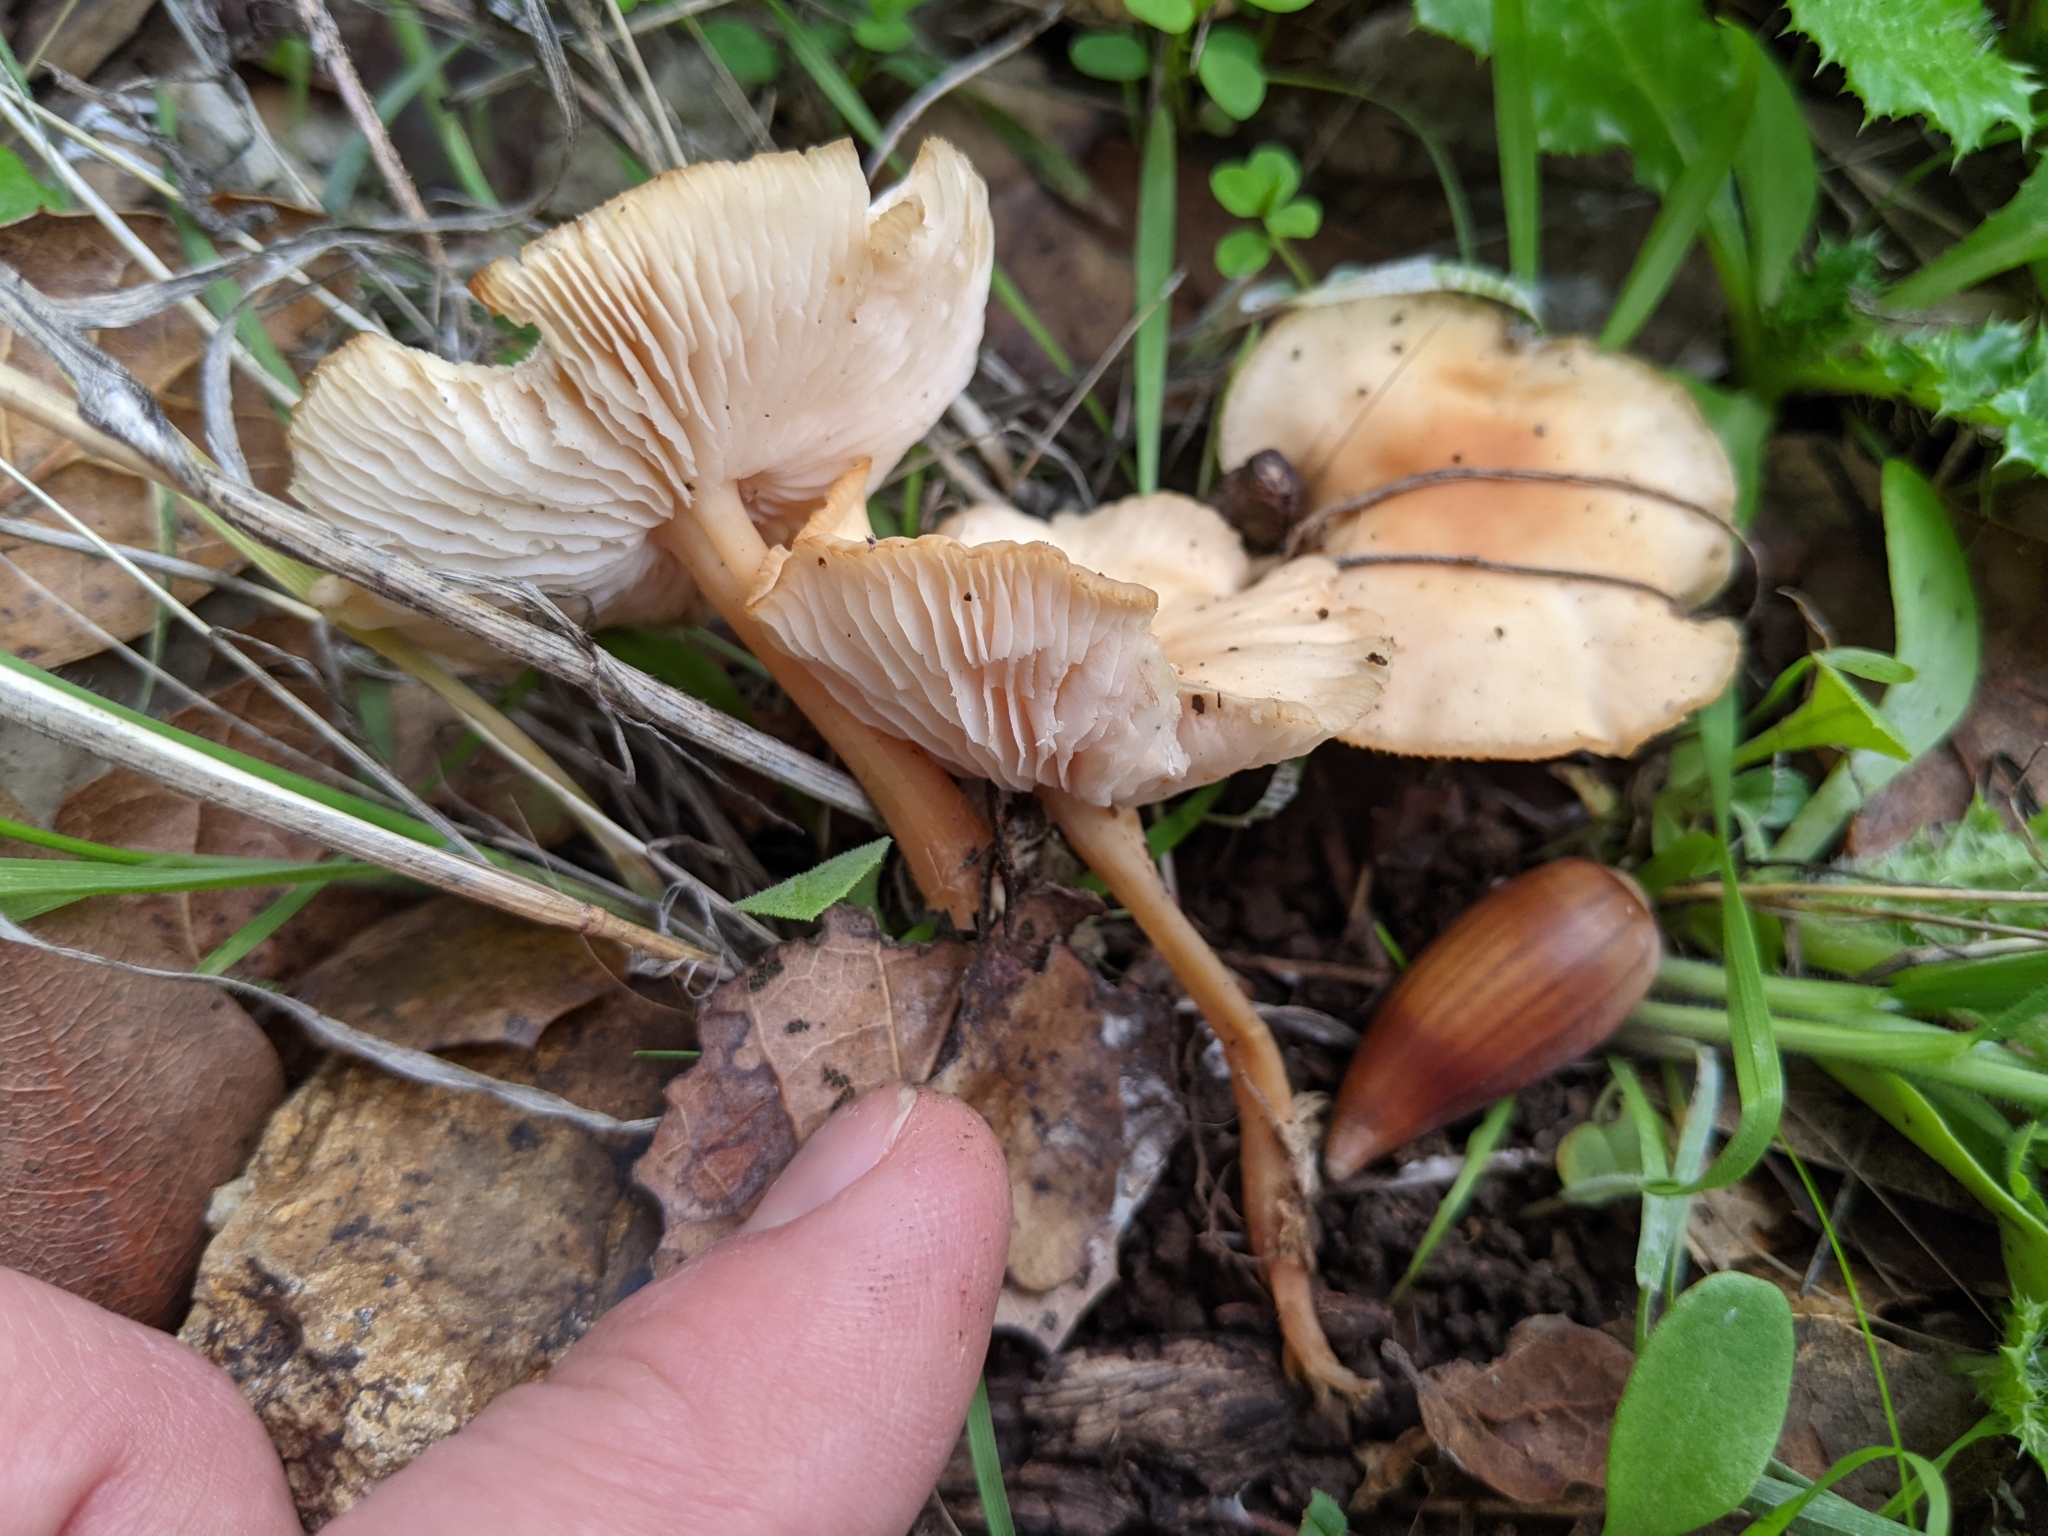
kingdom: Fungi
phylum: Basidiomycota
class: Agaricomycetes
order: Agaricales
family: Omphalotaceae
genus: Gymnopus
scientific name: Gymnopus dryophilus
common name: Penny top
